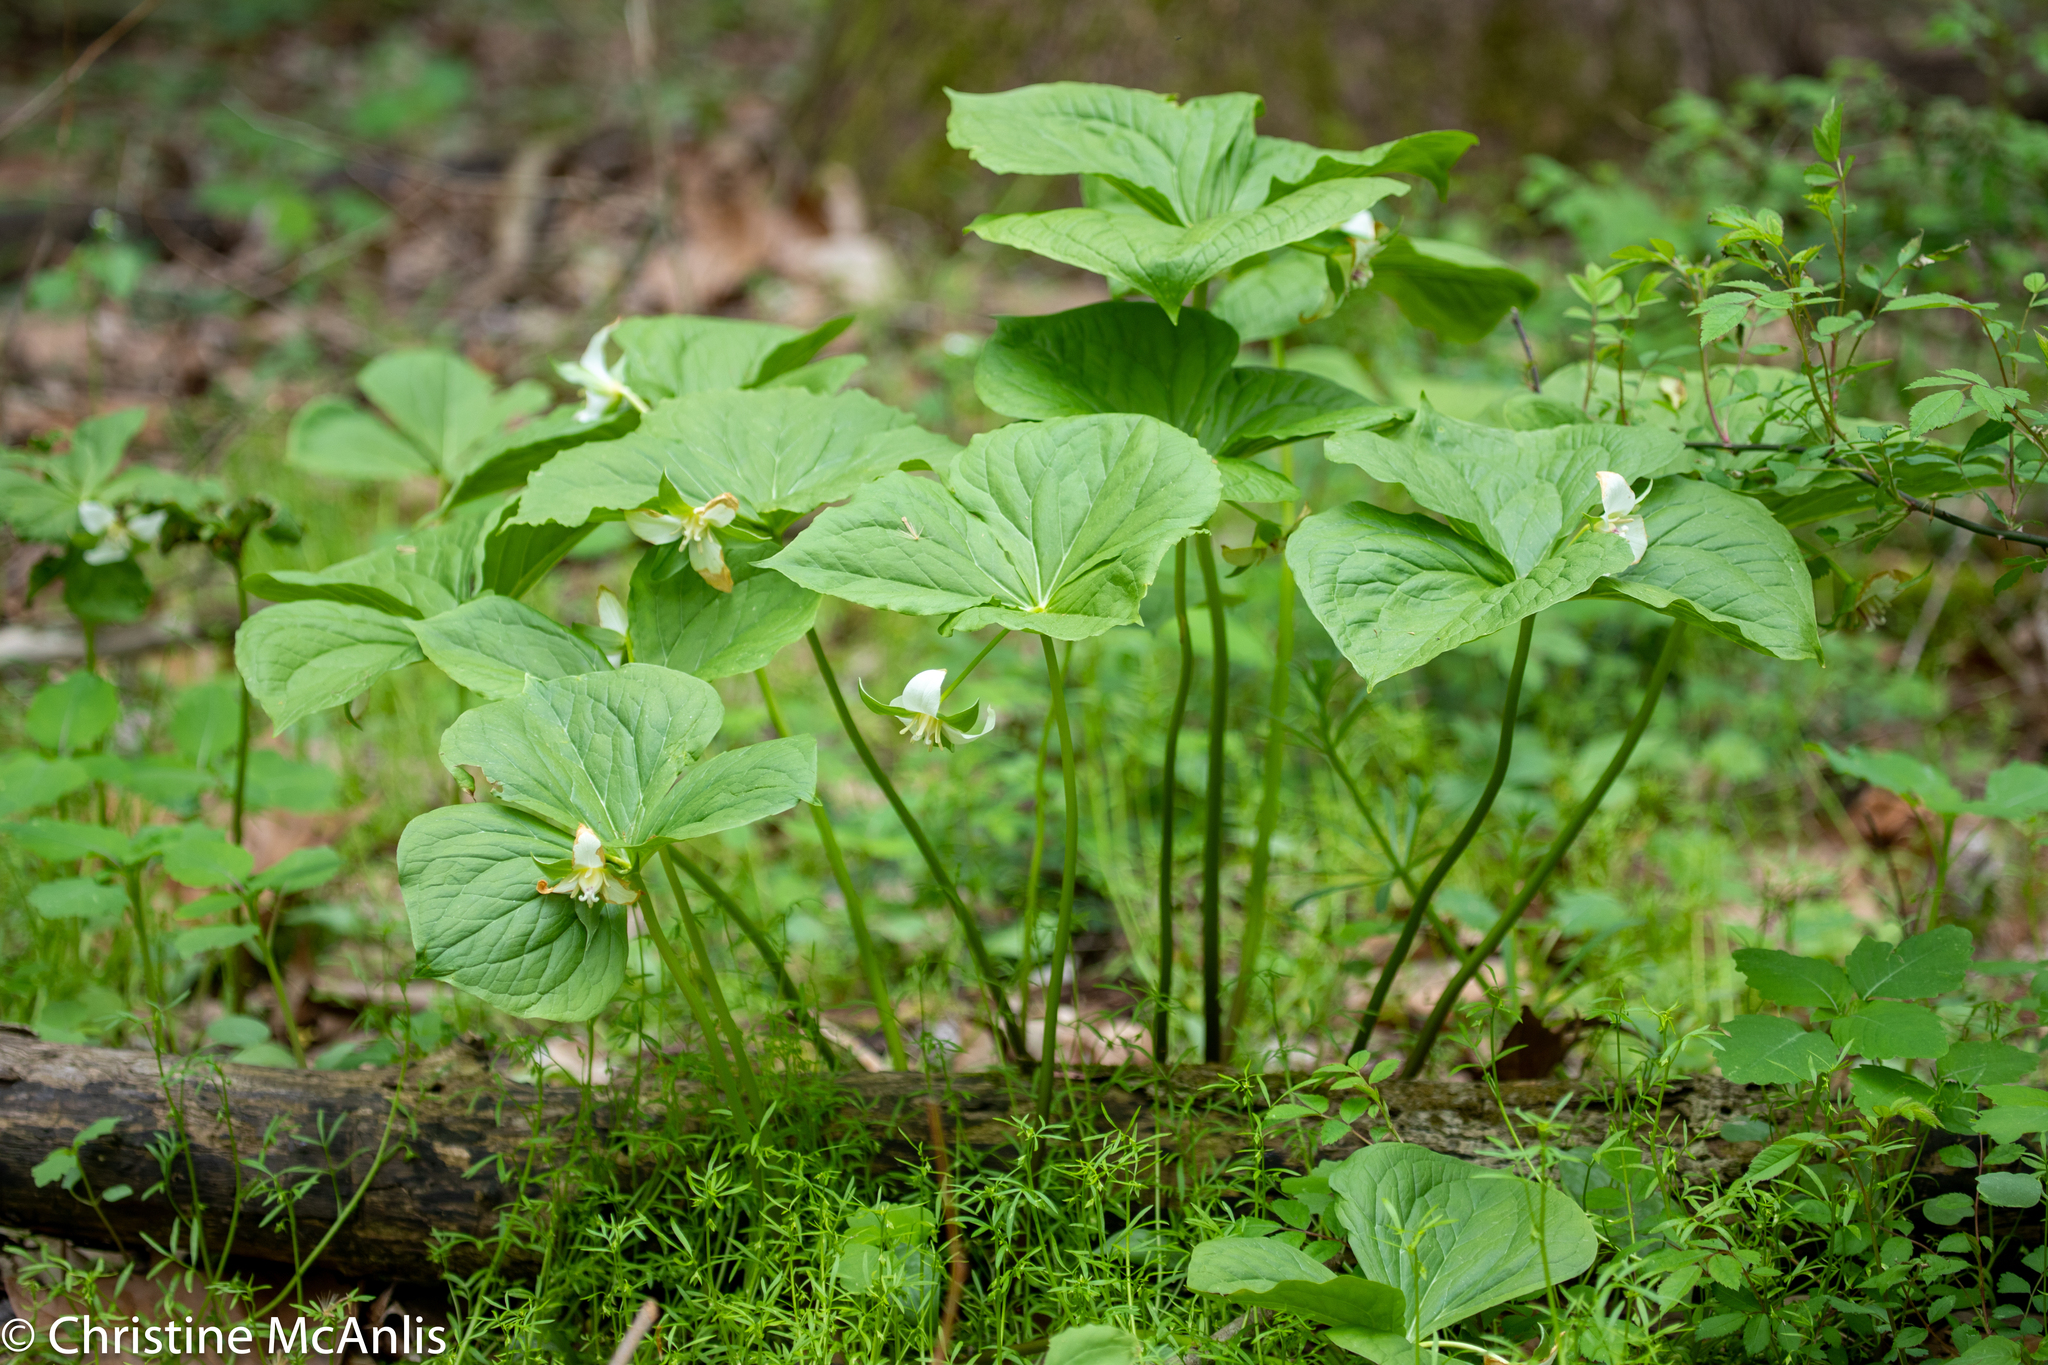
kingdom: Plantae
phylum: Tracheophyta
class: Liliopsida
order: Liliales
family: Melanthiaceae
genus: Trillium
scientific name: Trillium flexipes
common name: Drooping trillium
